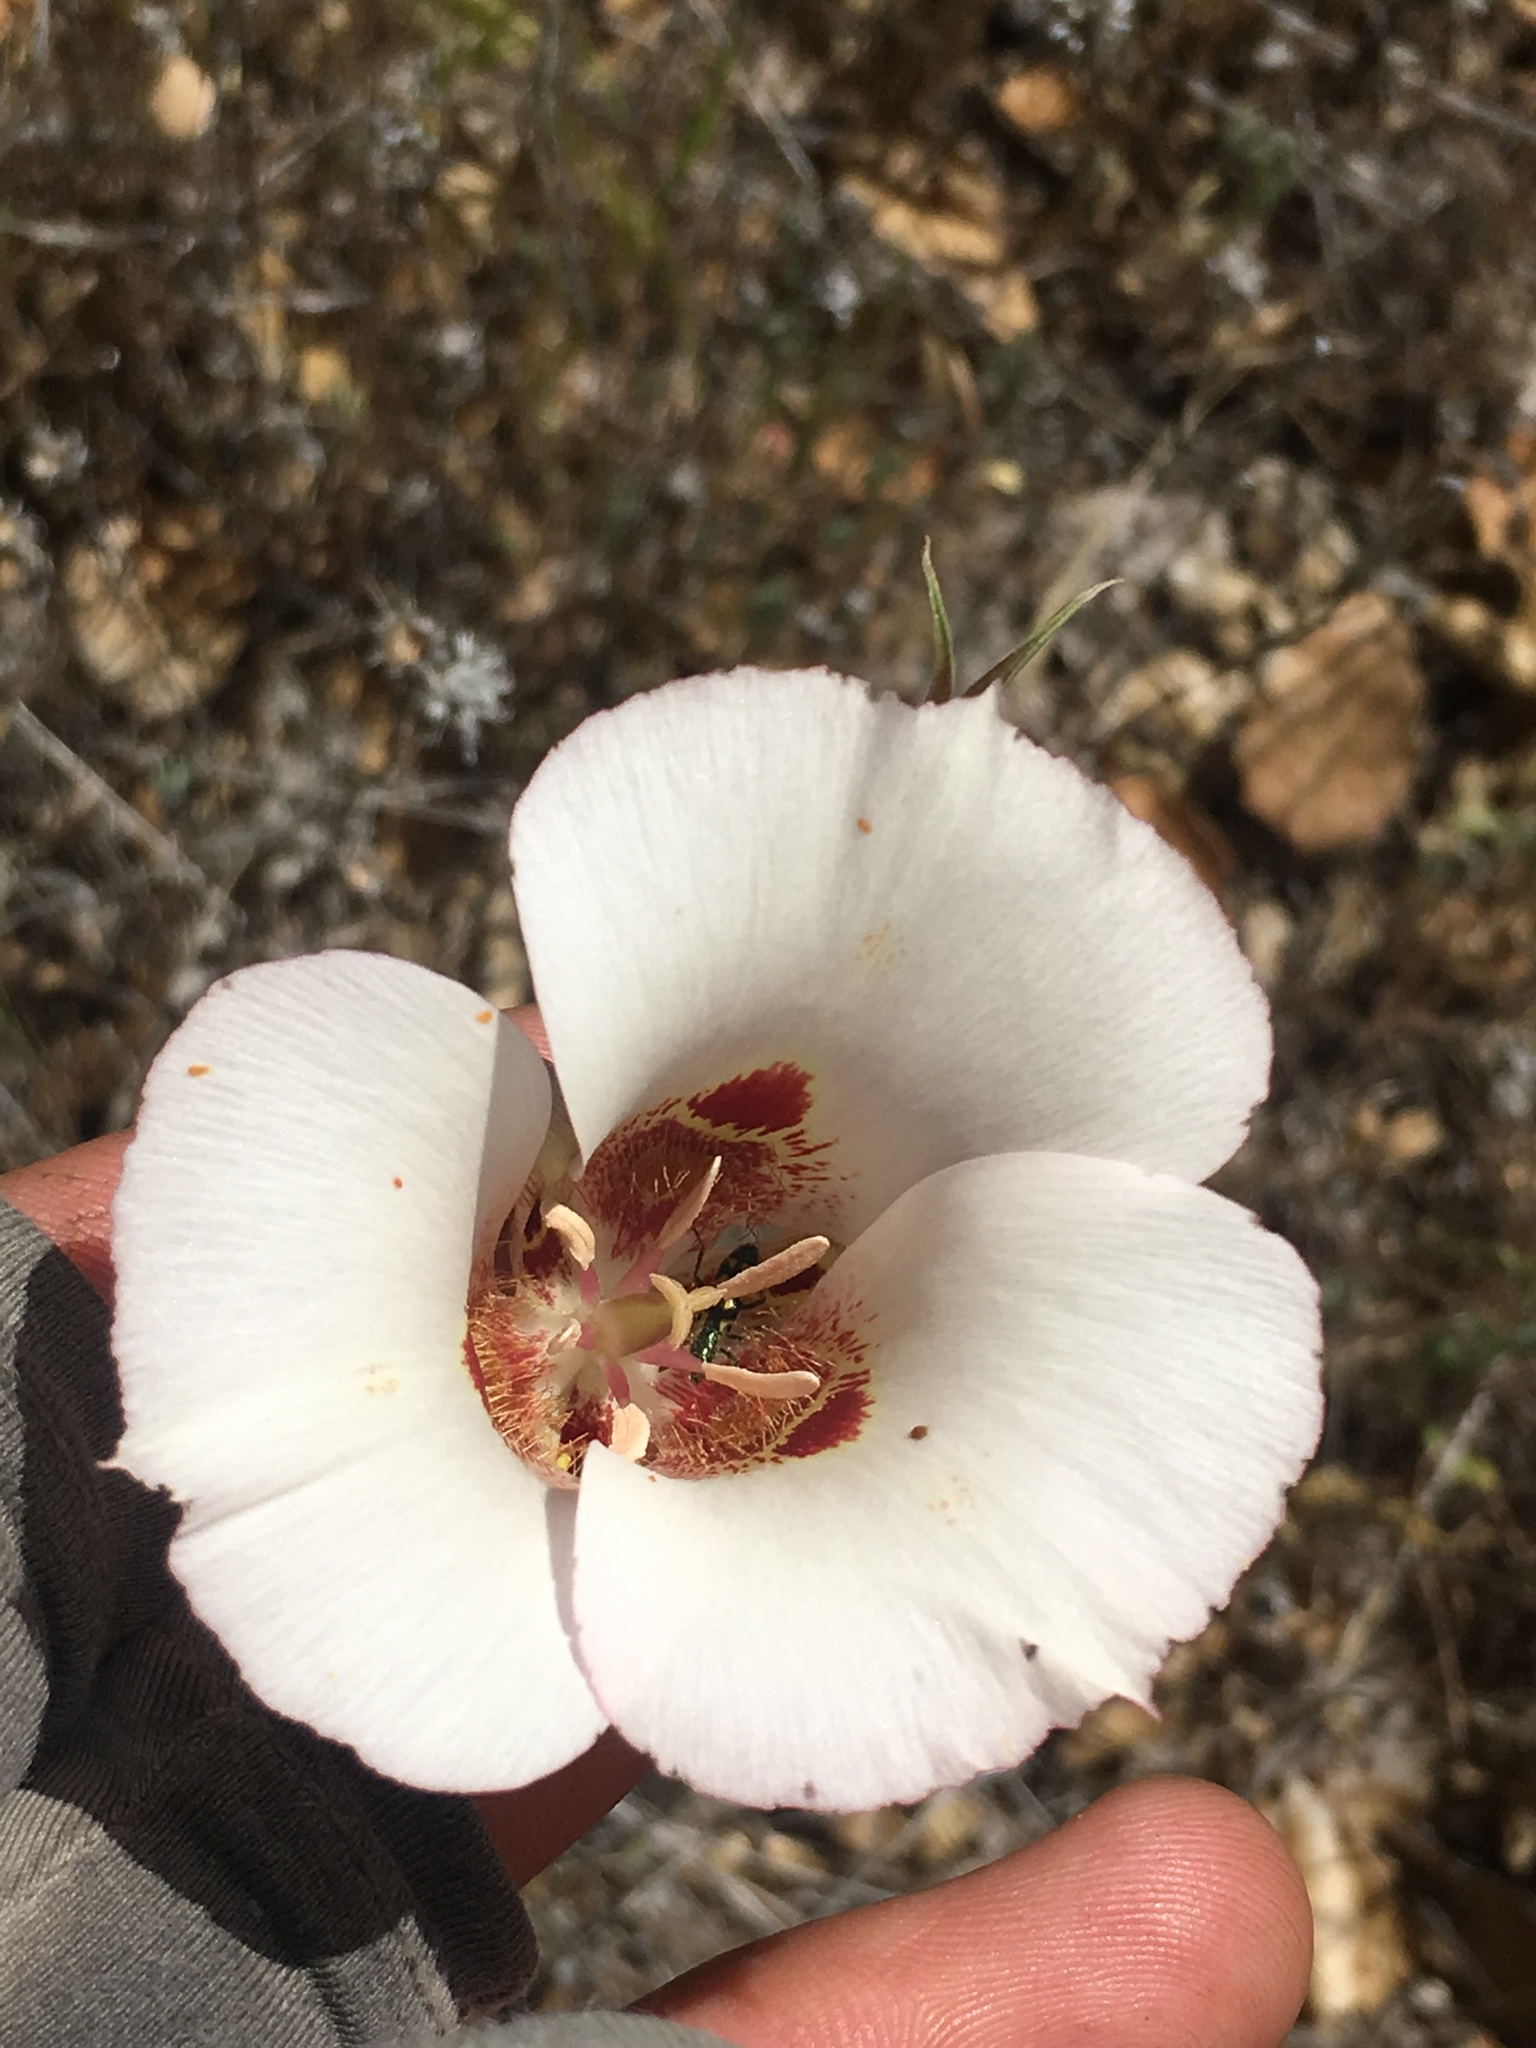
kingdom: Plantae
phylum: Tracheophyta
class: Liliopsida
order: Liliales
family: Liliaceae
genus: Calochortus
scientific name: Calochortus venustus
